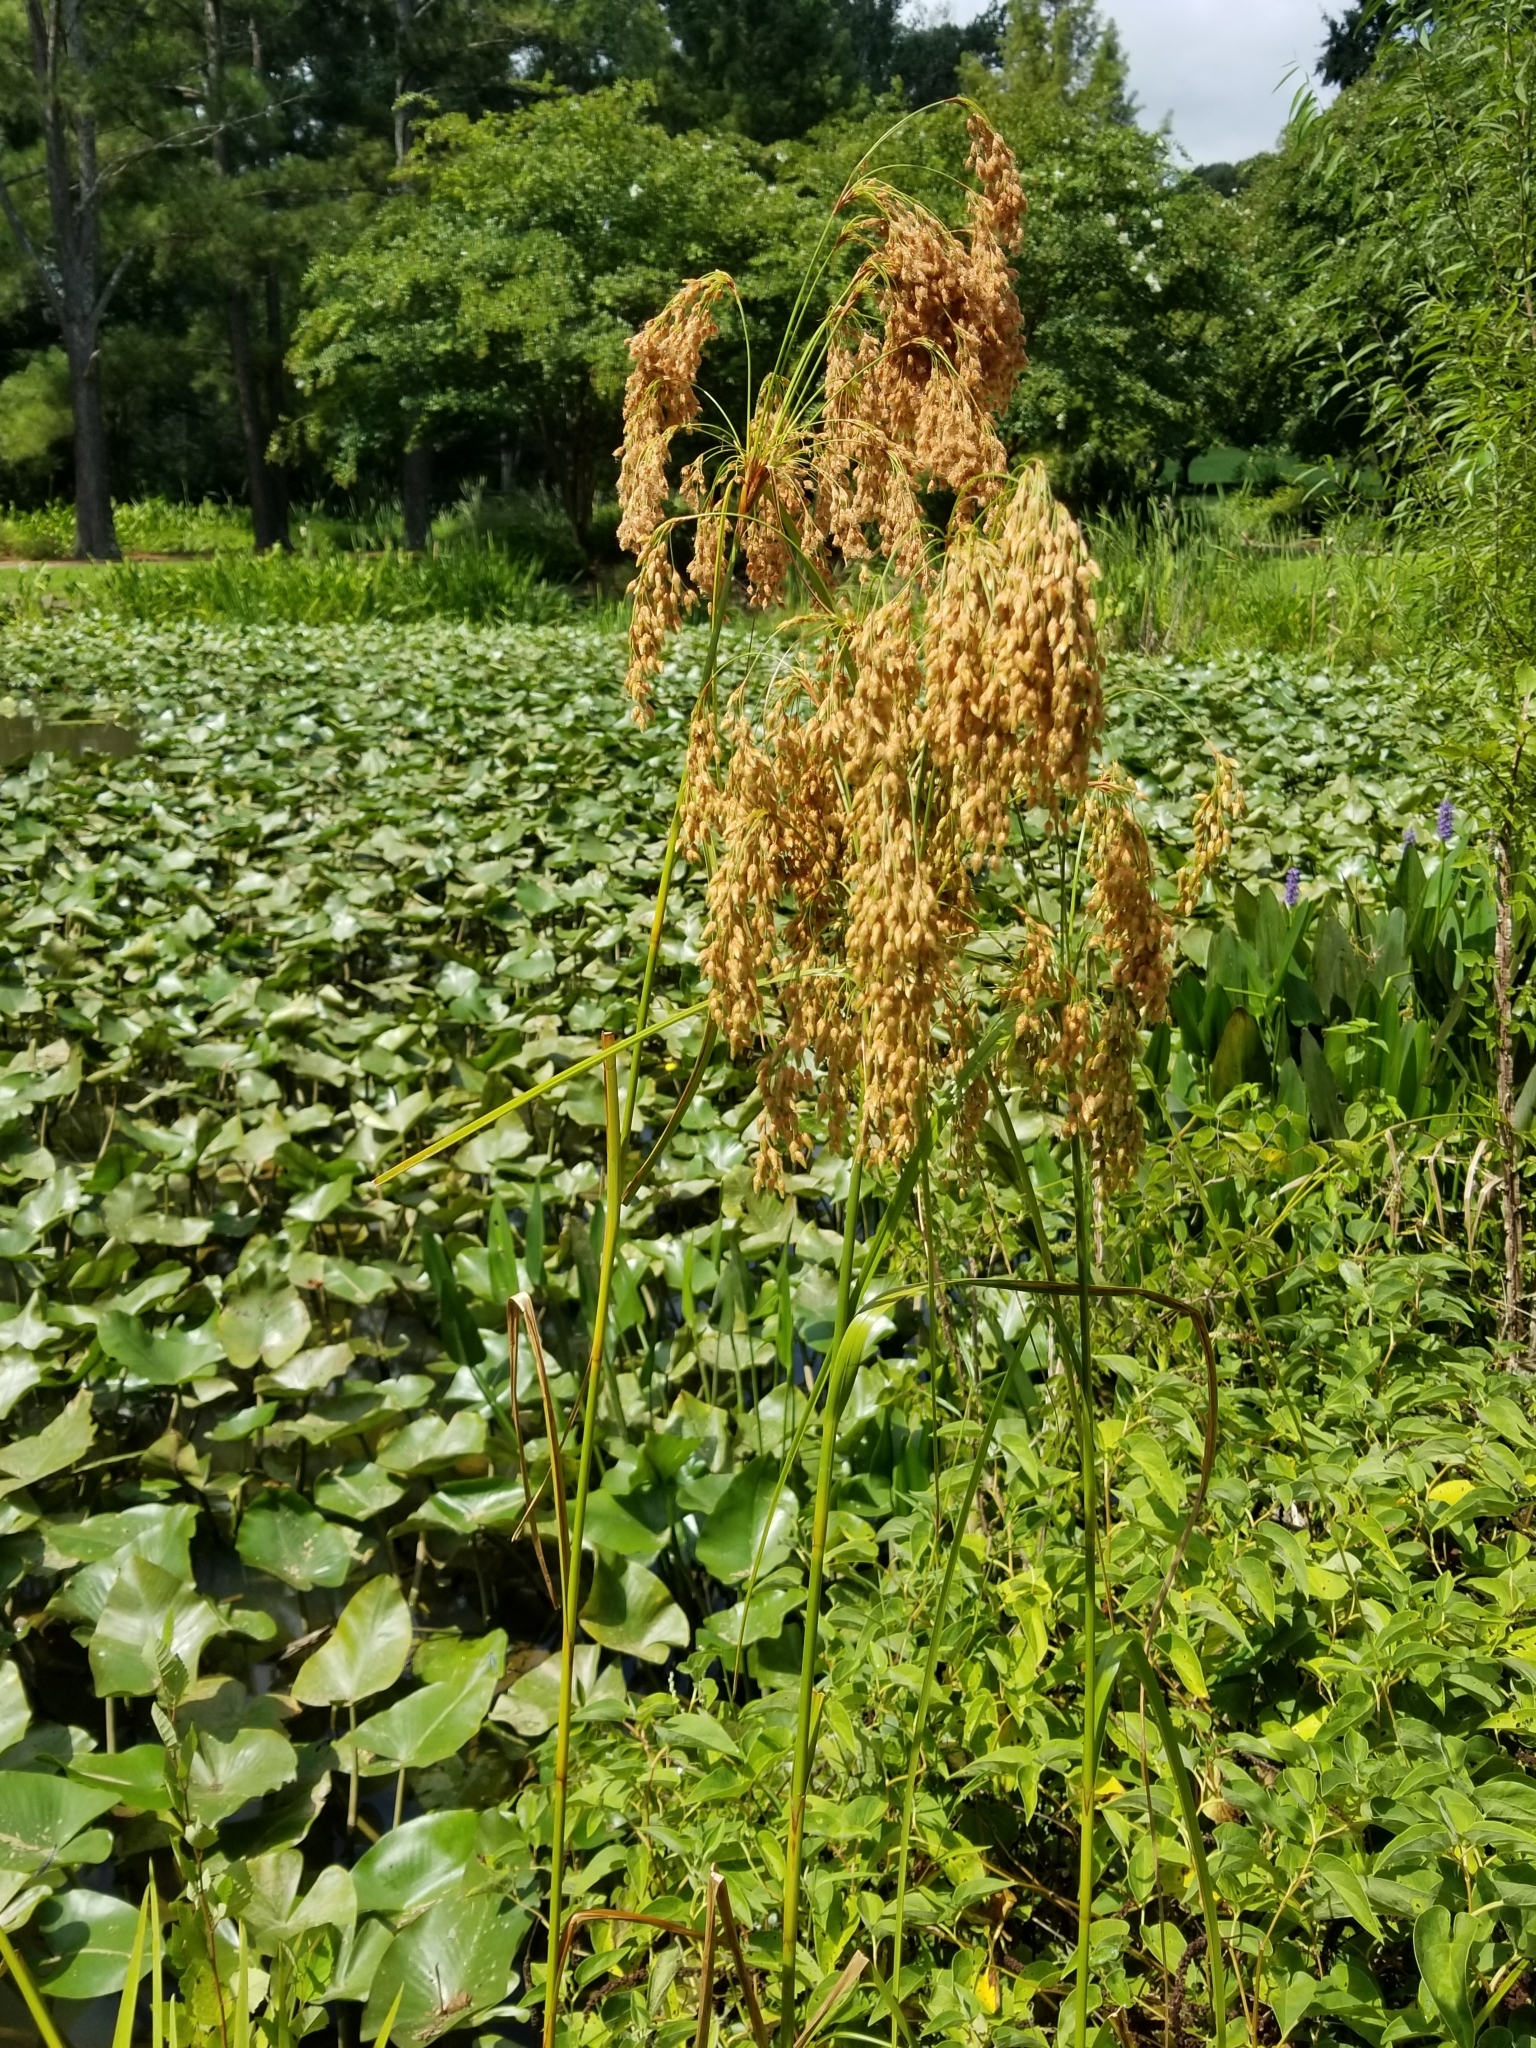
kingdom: Plantae
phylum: Tracheophyta
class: Liliopsida
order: Poales
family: Cyperaceae
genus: Scirpus
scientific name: Scirpus cyperinus
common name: Black-sheathed bulrush
